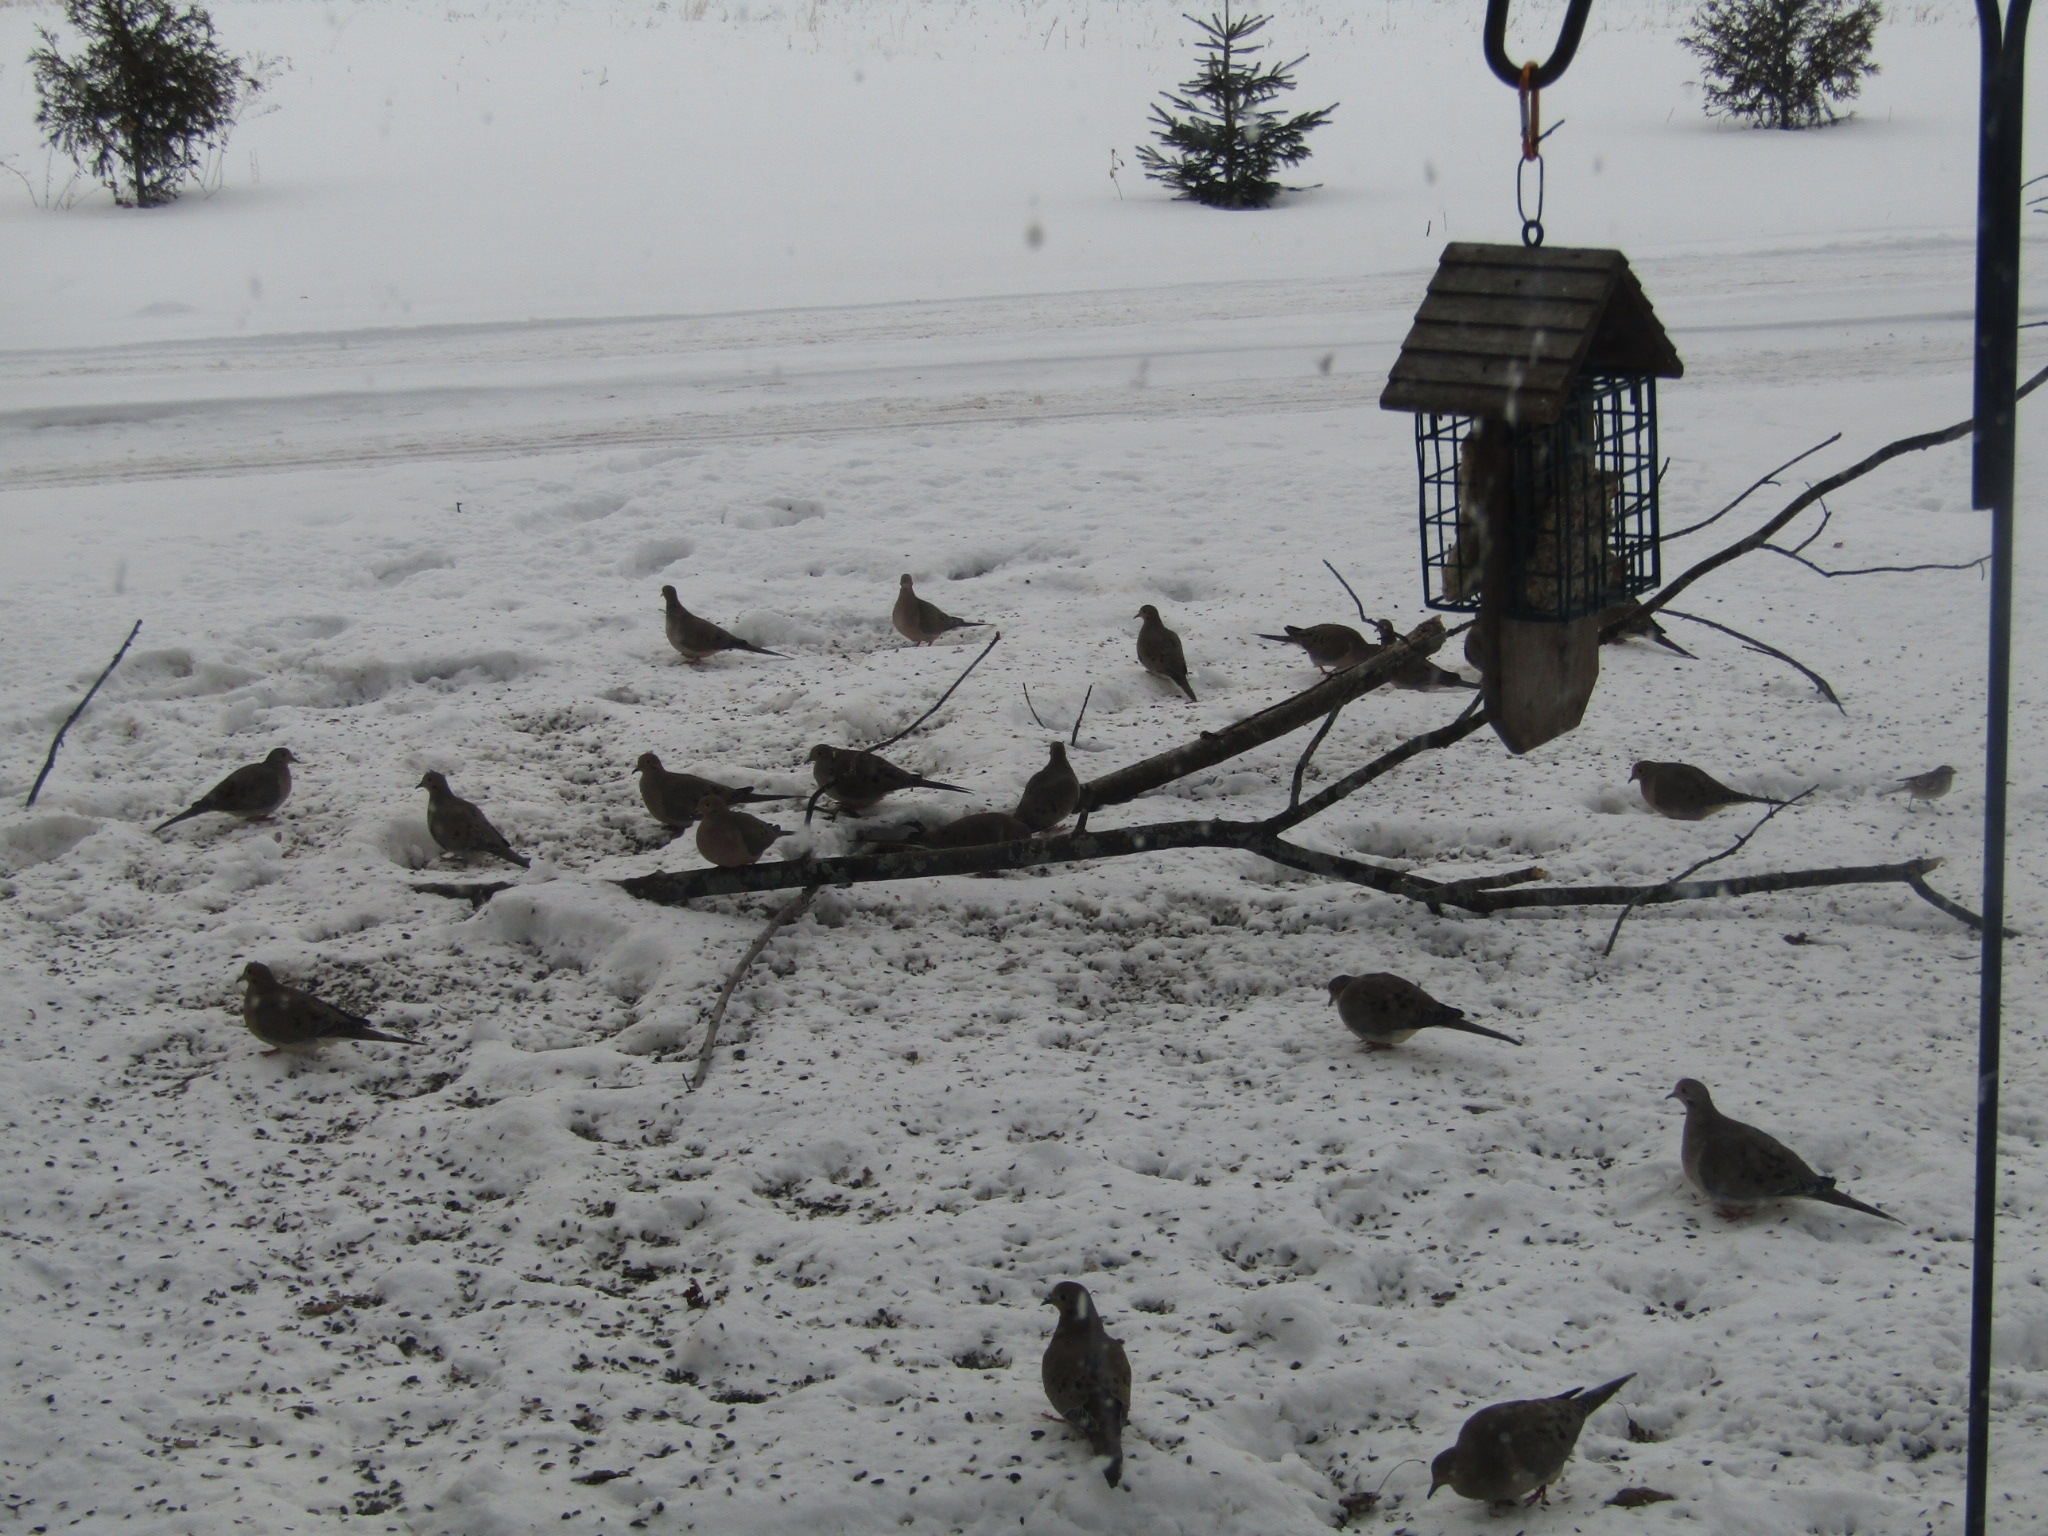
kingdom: Animalia
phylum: Chordata
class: Aves
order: Columbiformes
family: Columbidae
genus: Zenaida
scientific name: Zenaida macroura
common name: Mourning dove
